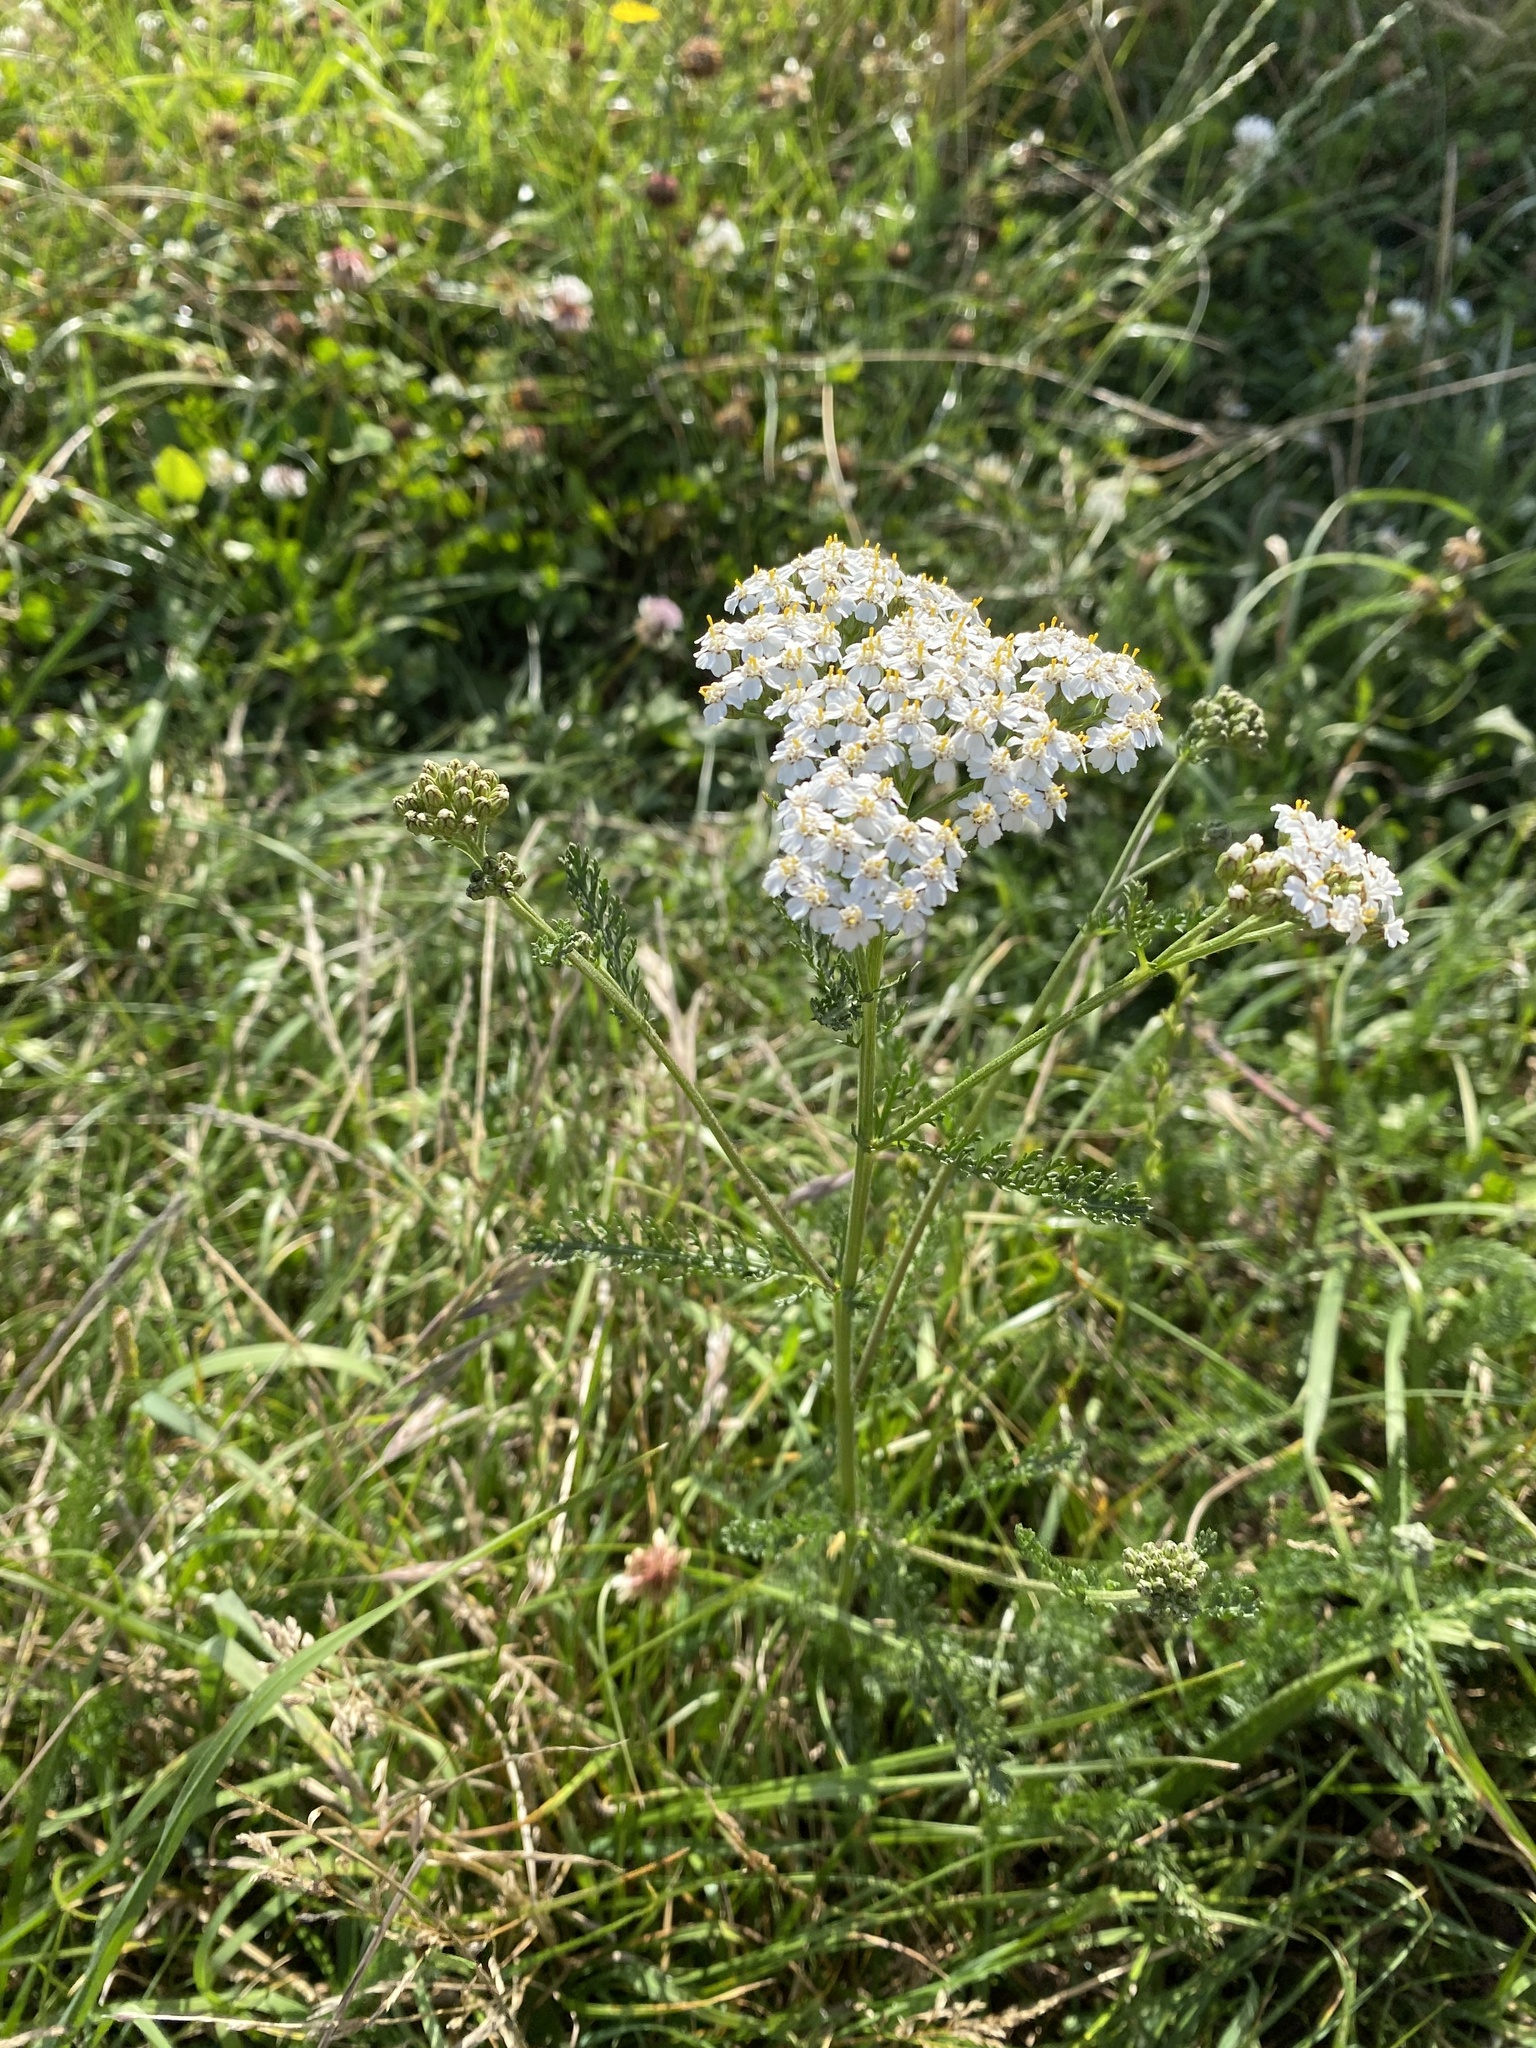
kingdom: Plantae
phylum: Tracheophyta
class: Magnoliopsida
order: Asterales
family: Asteraceae
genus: Achillea
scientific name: Achillea millefolium
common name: Yarrow
